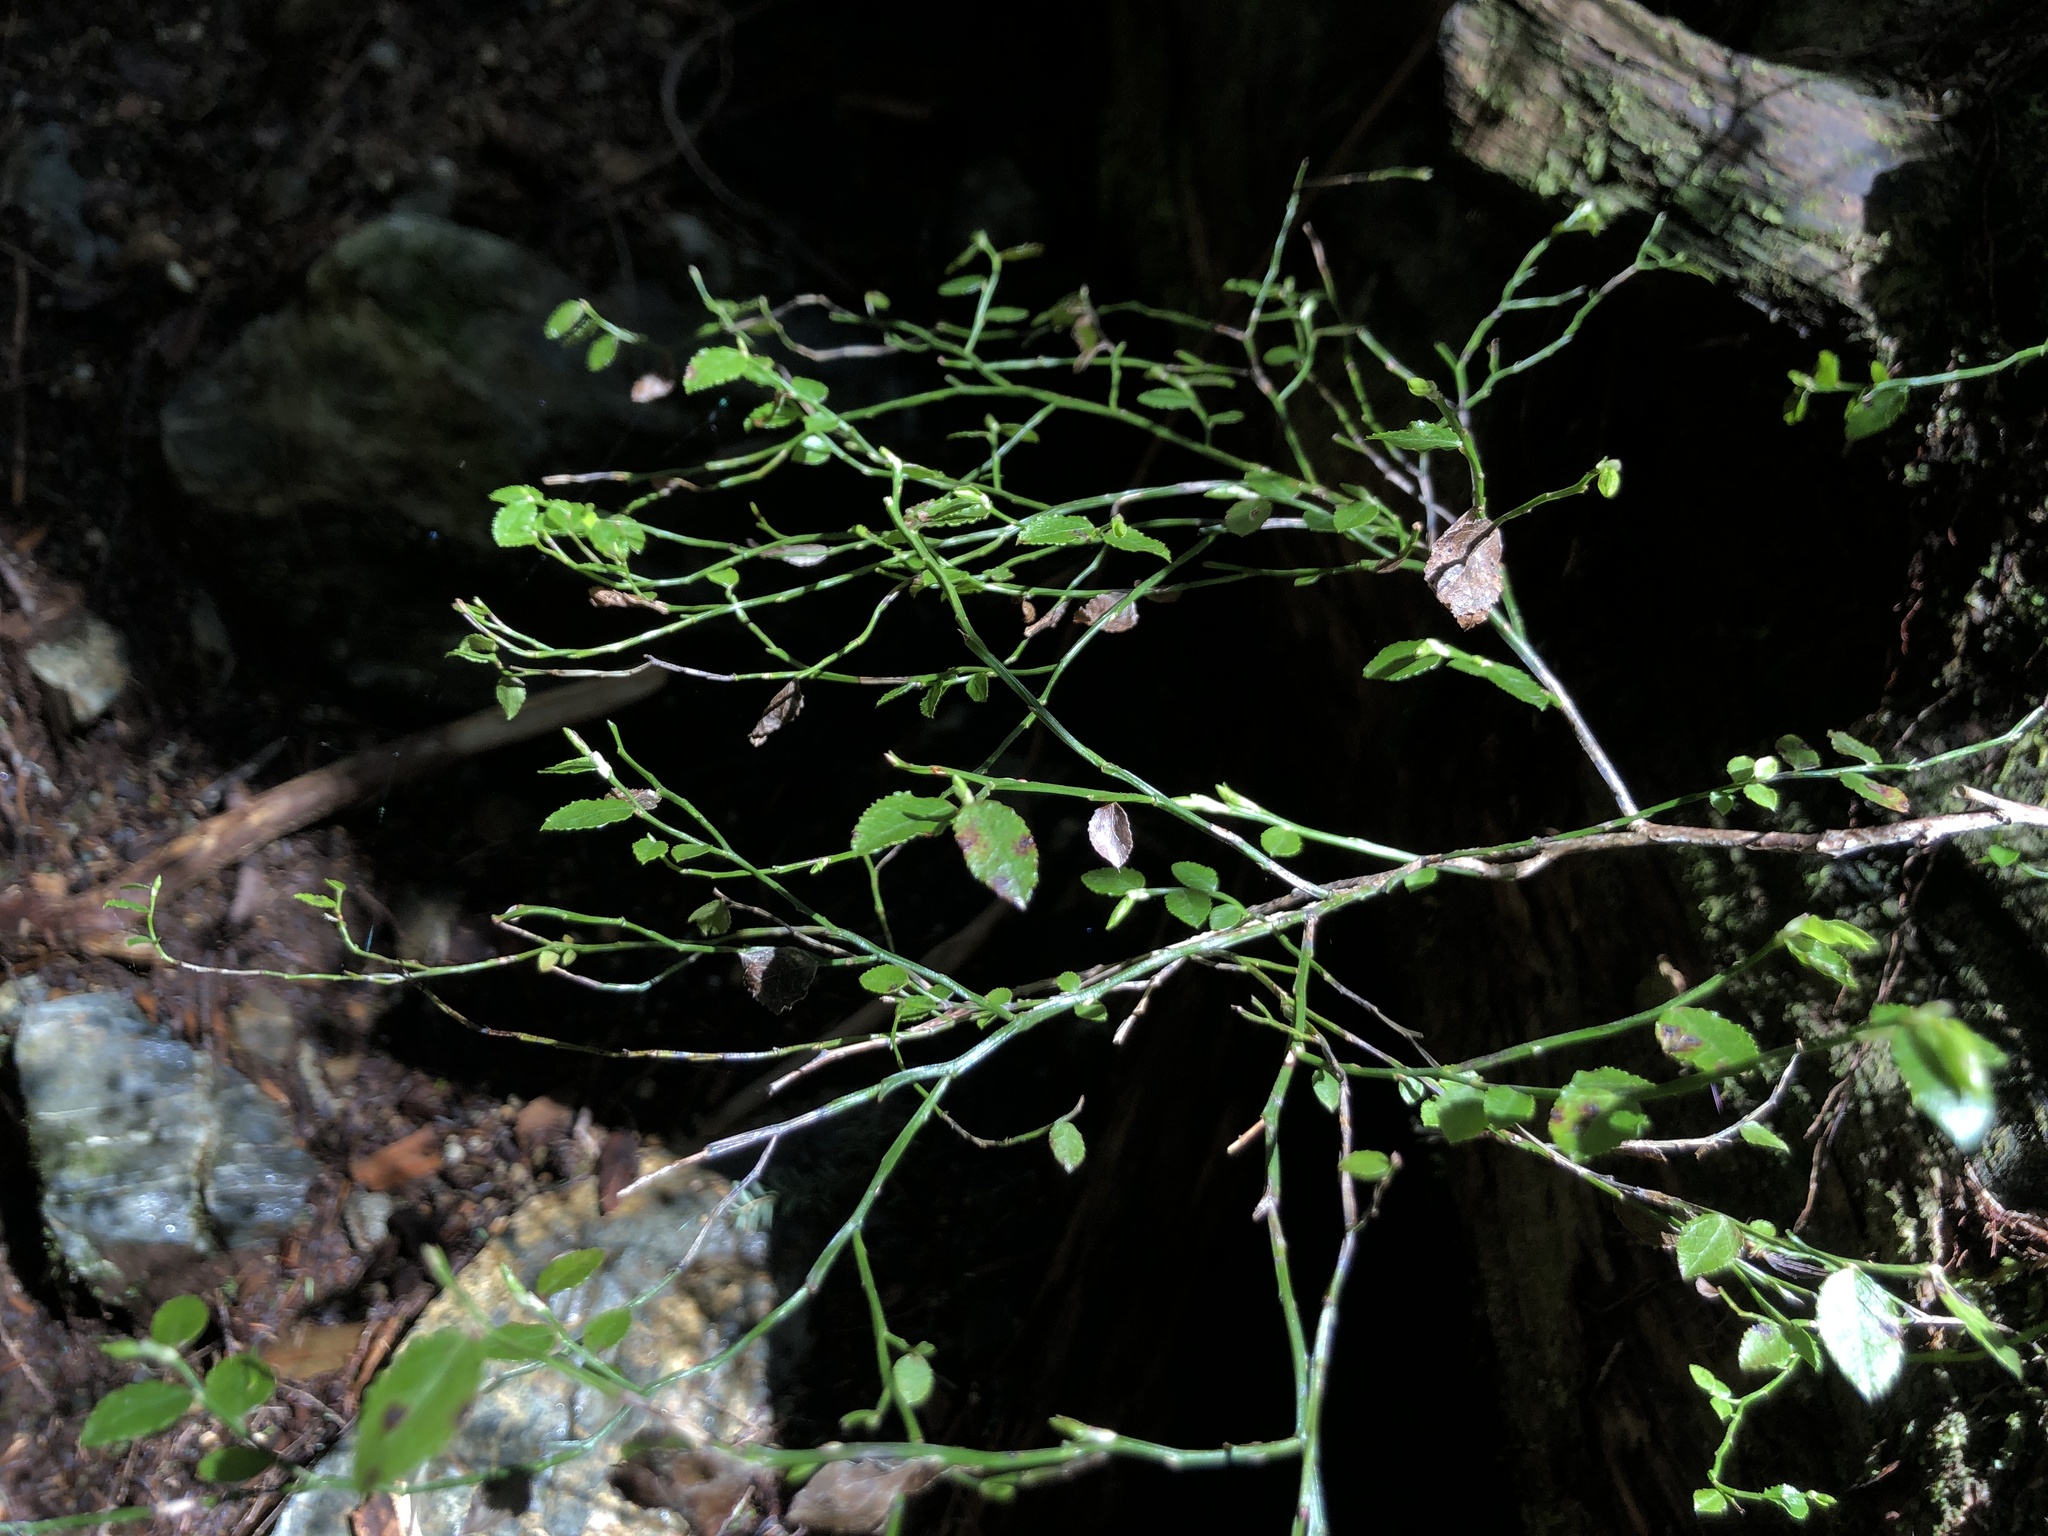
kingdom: Plantae
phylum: Tracheophyta
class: Magnoliopsida
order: Ericales
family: Ericaceae
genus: Vaccinium
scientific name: Vaccinium parvifolium
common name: Red-huckleberry
